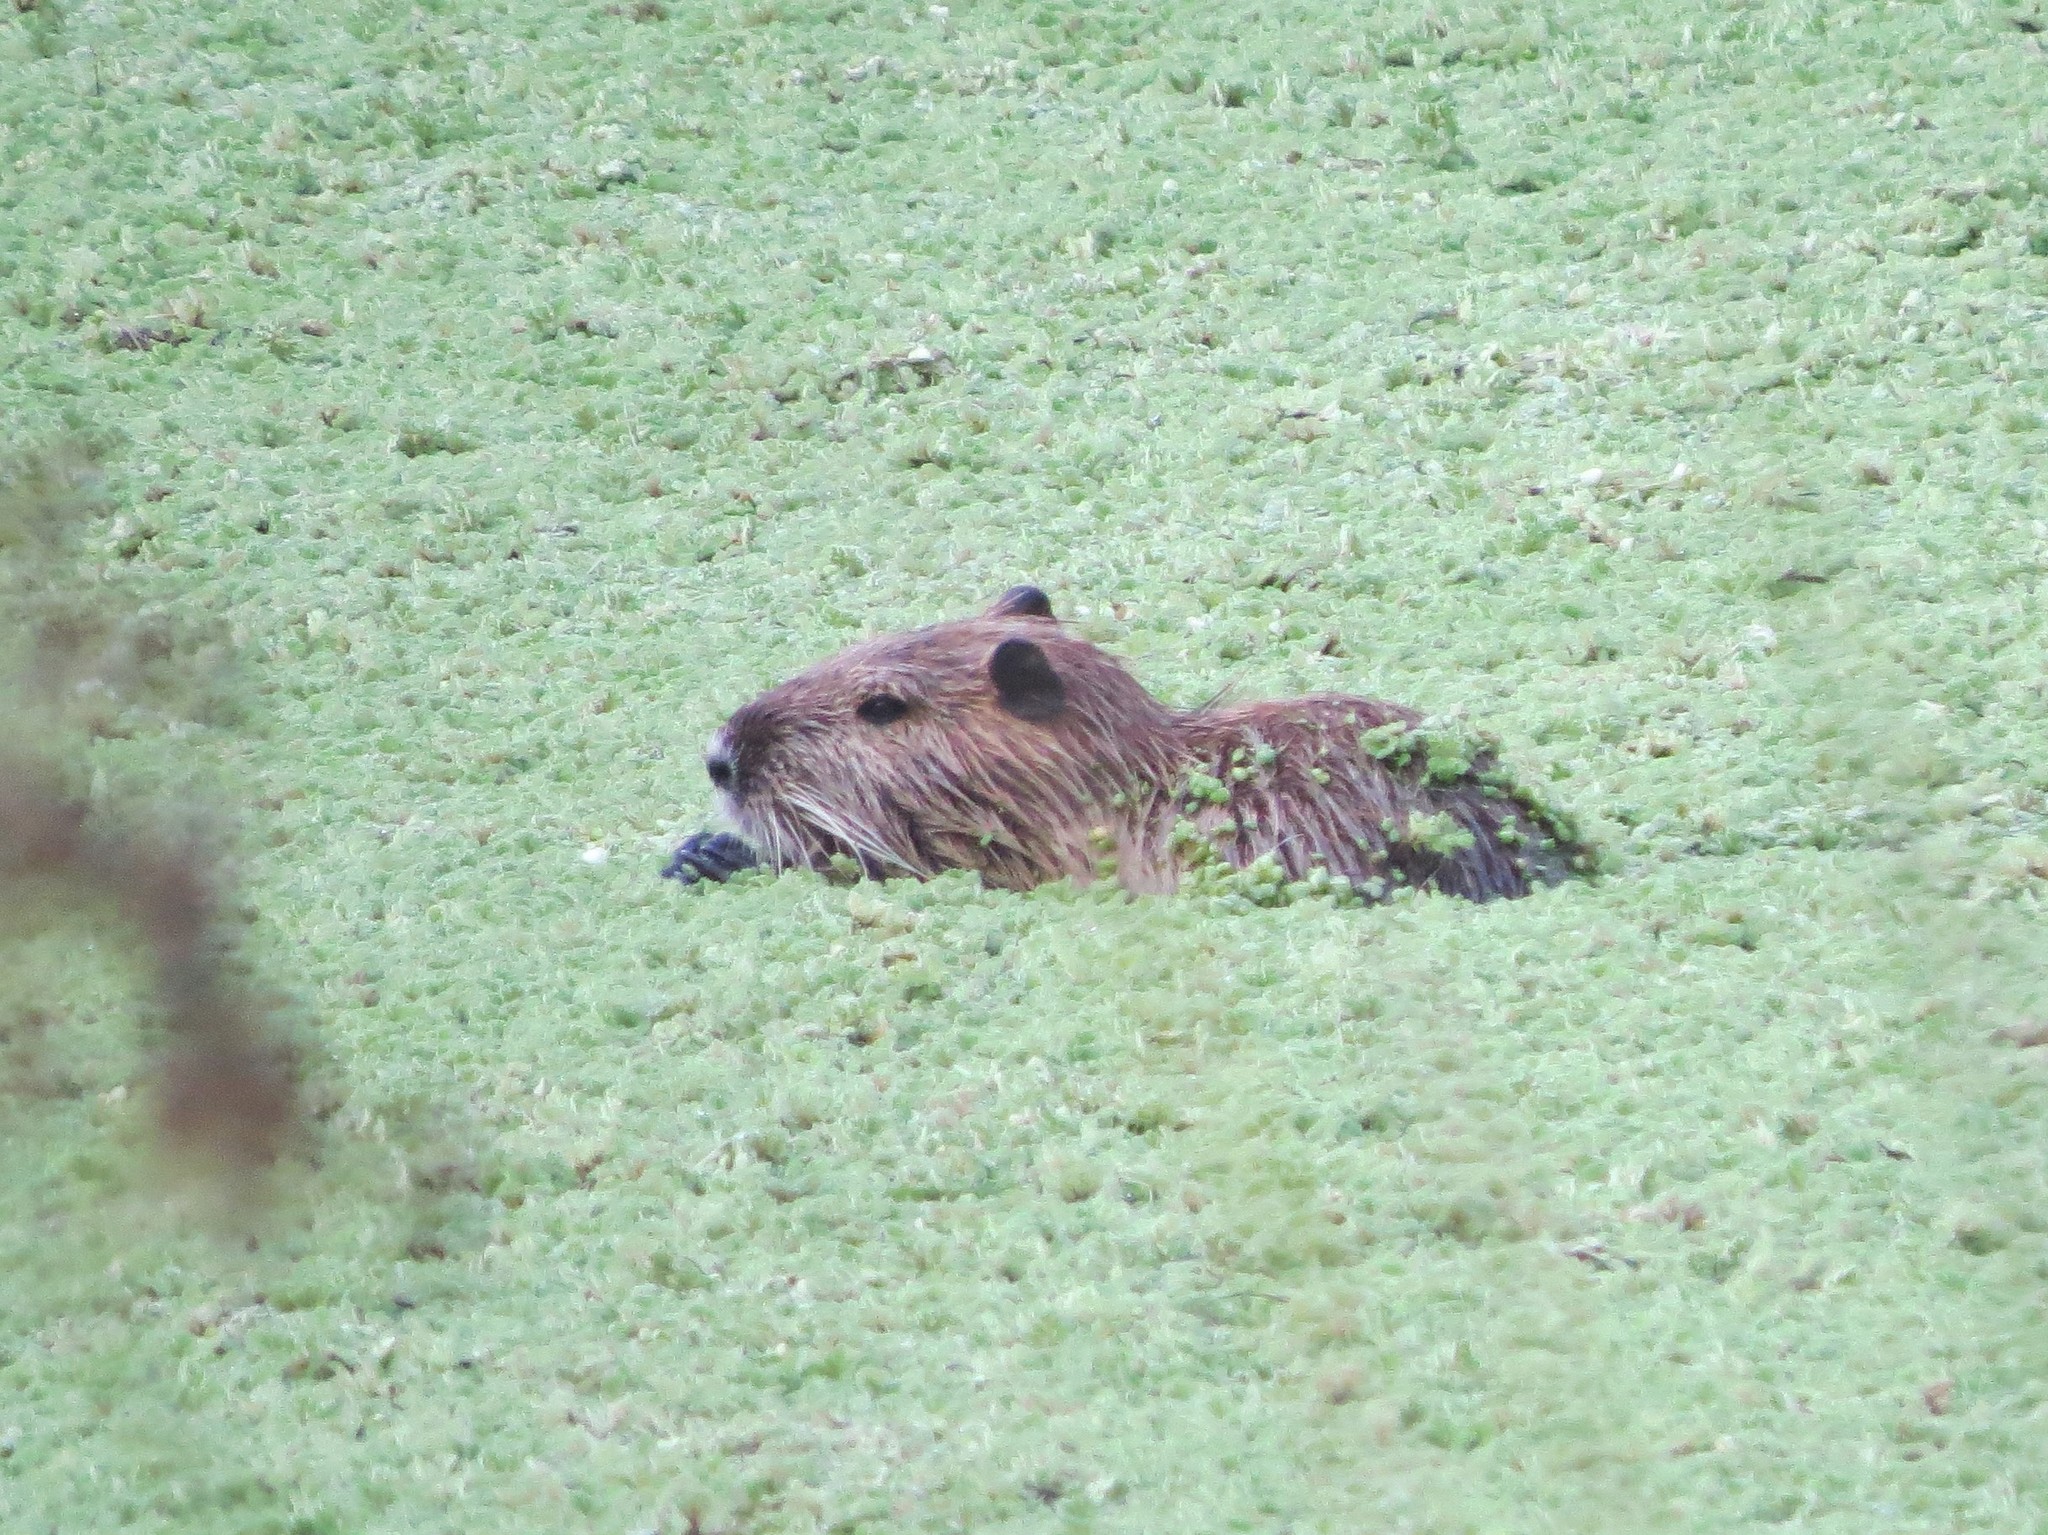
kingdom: Animalia
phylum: Chordata
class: Mammalia
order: Rodentia
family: Myocastoridae
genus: Myocastor
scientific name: Myocastor coypus
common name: Coypu
